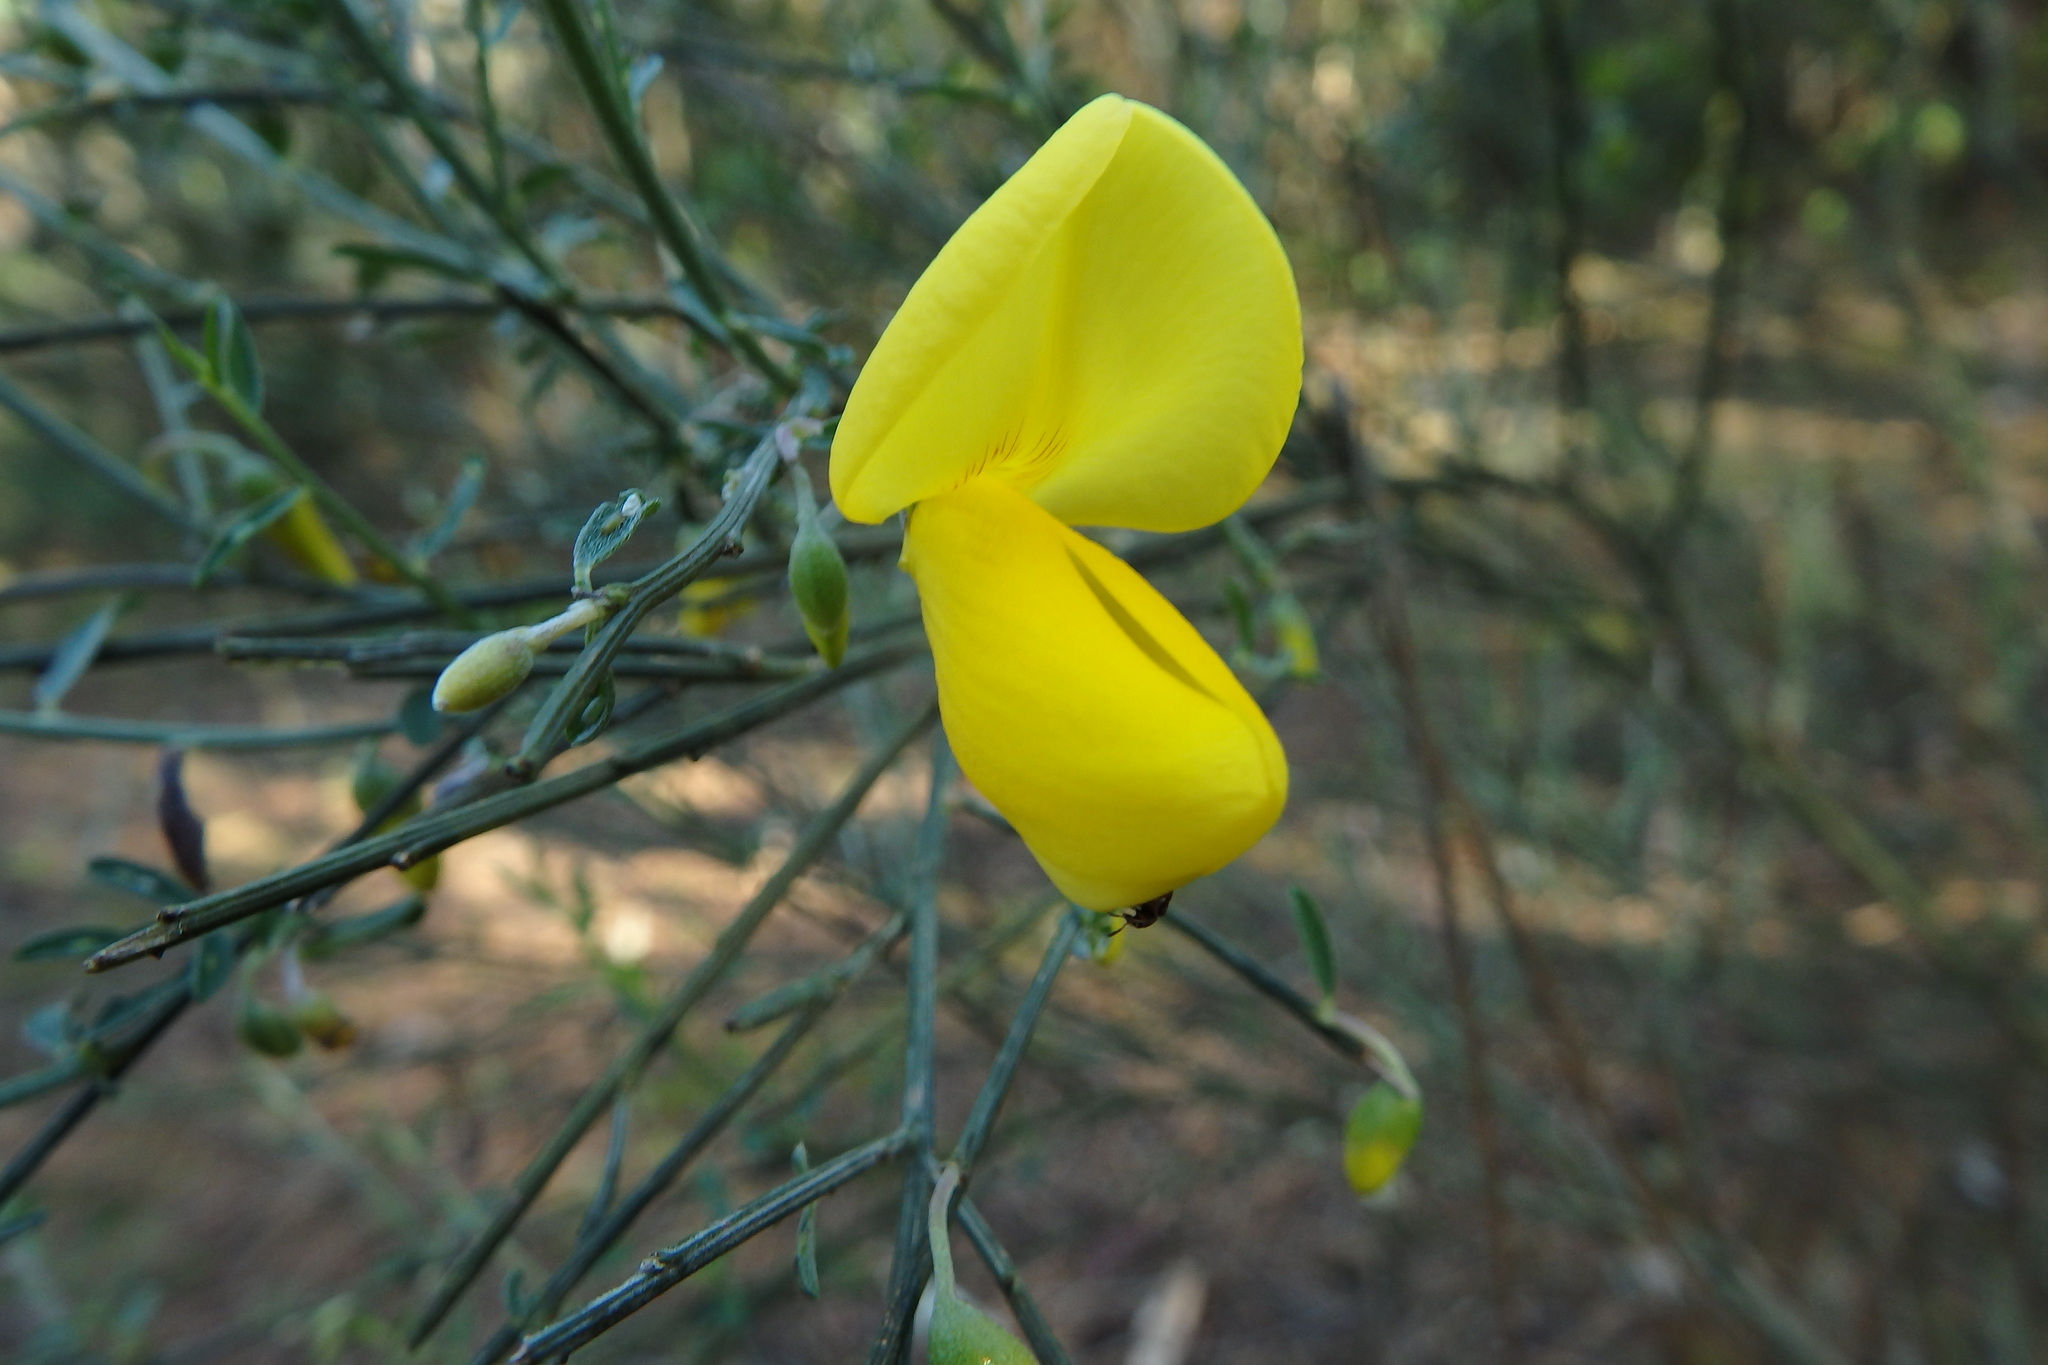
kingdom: Plantae
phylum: Tracheophyta
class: Magnoliopsida
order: Fabales
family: Fabaceae
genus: Cytisus
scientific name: Cytisus striatus
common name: Hairy-fruited broom
